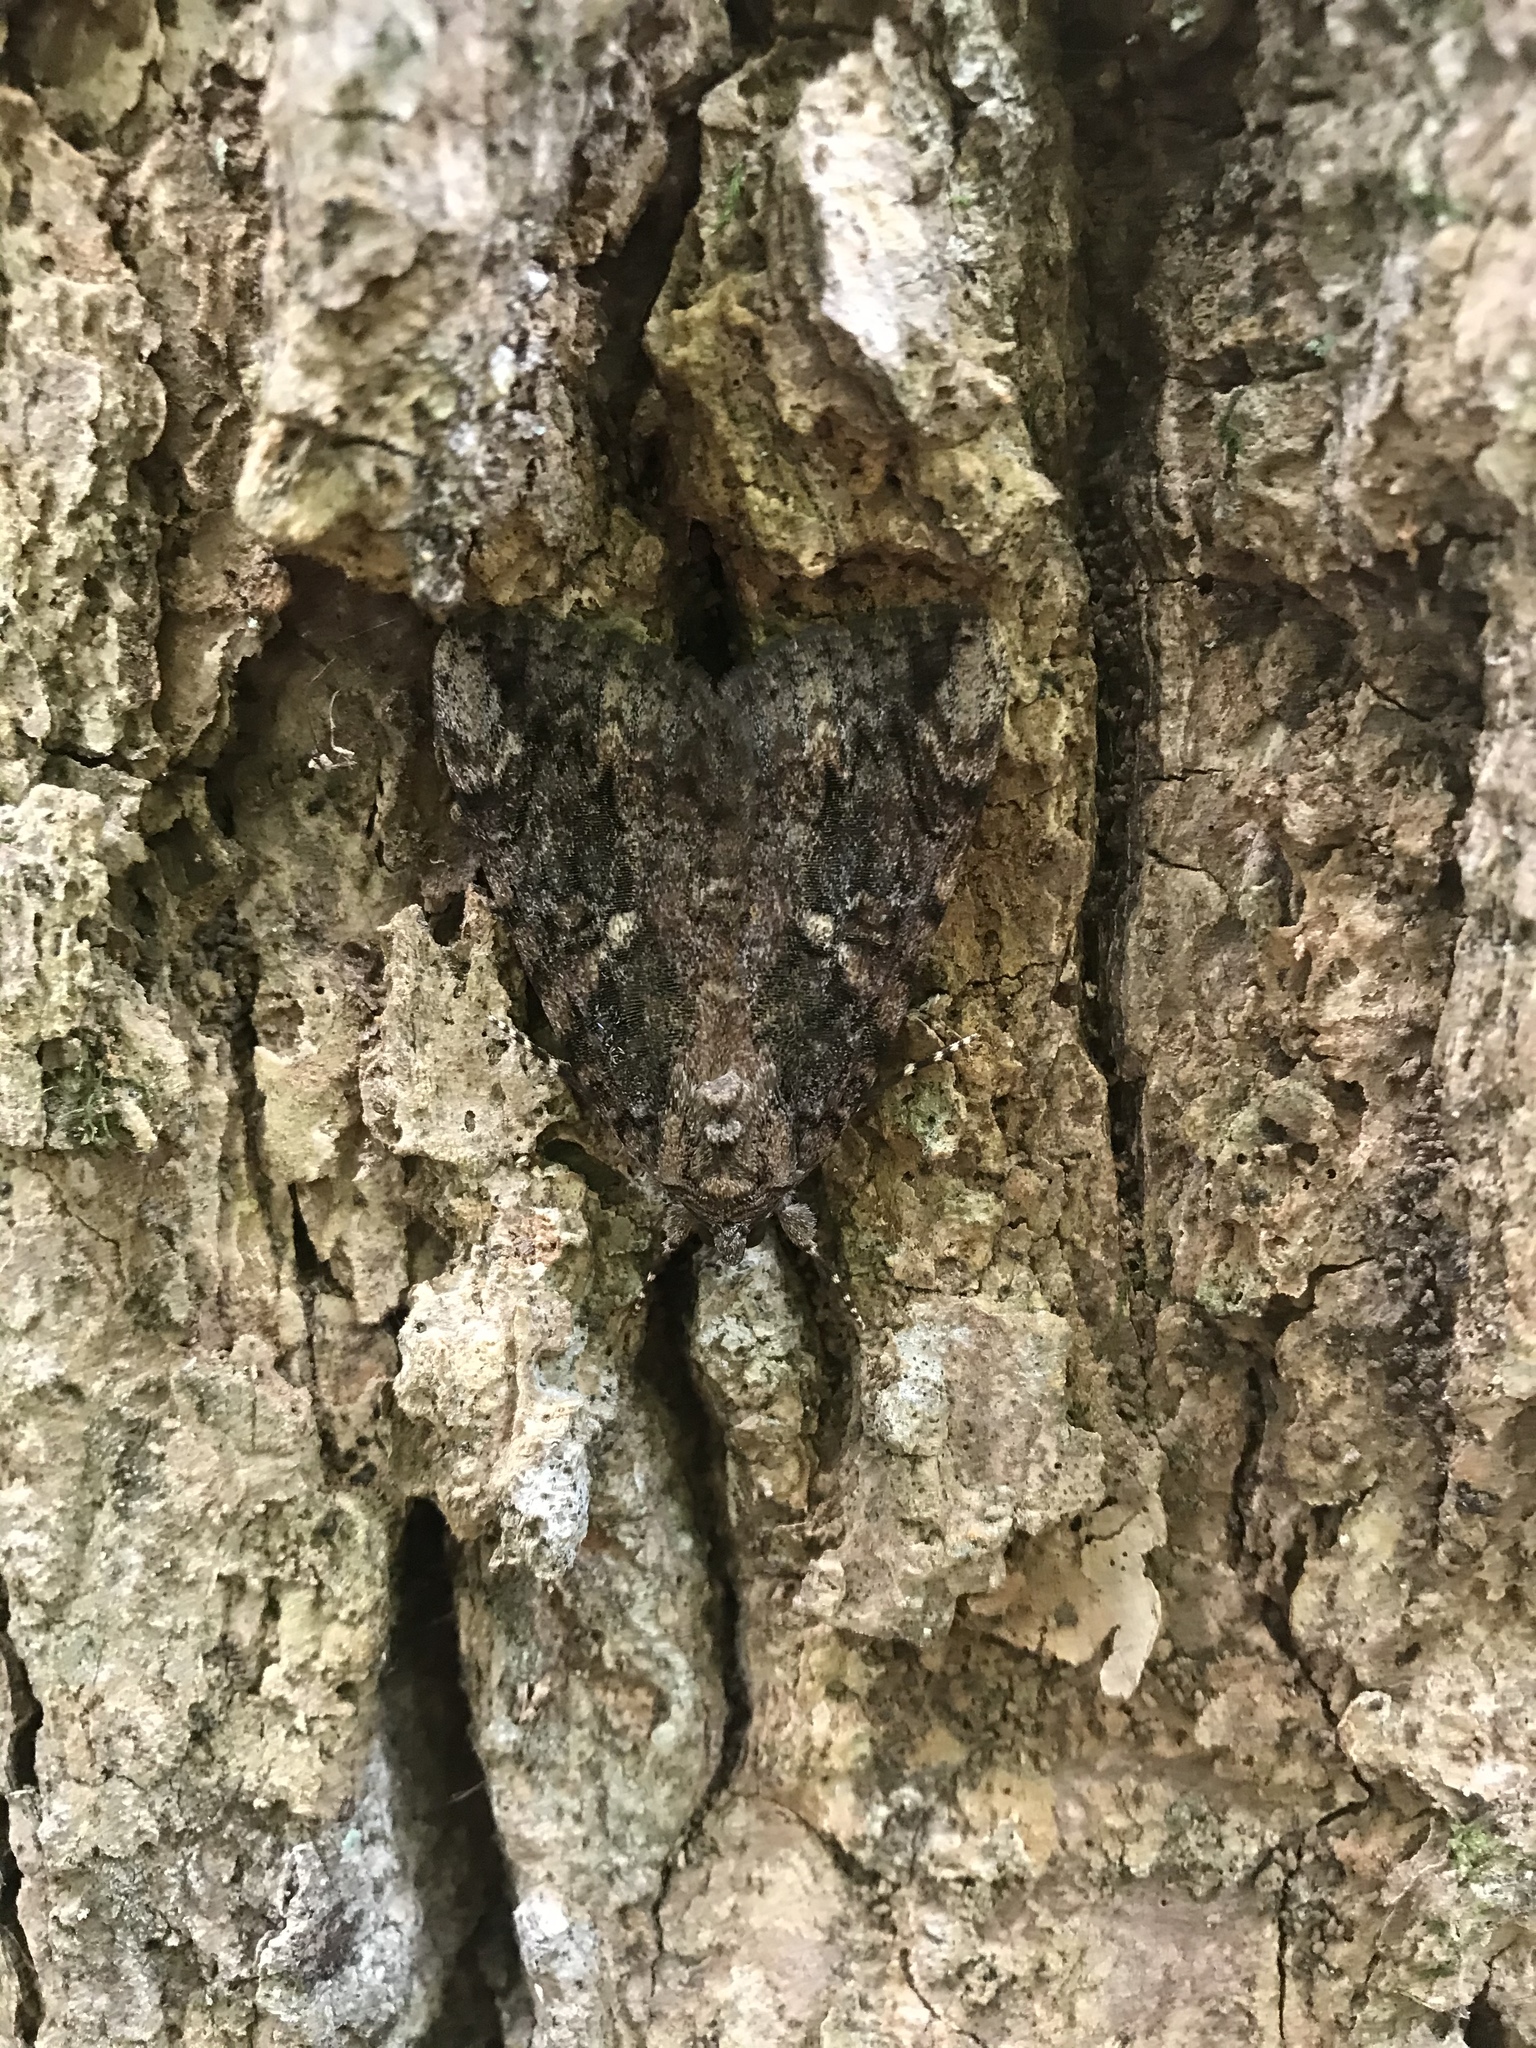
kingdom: Animalia
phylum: Arthropoda
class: Insecta
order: Lepidoptera
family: Erebidae
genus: Catocala
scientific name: Catocala innubens
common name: Betrothed underwing
